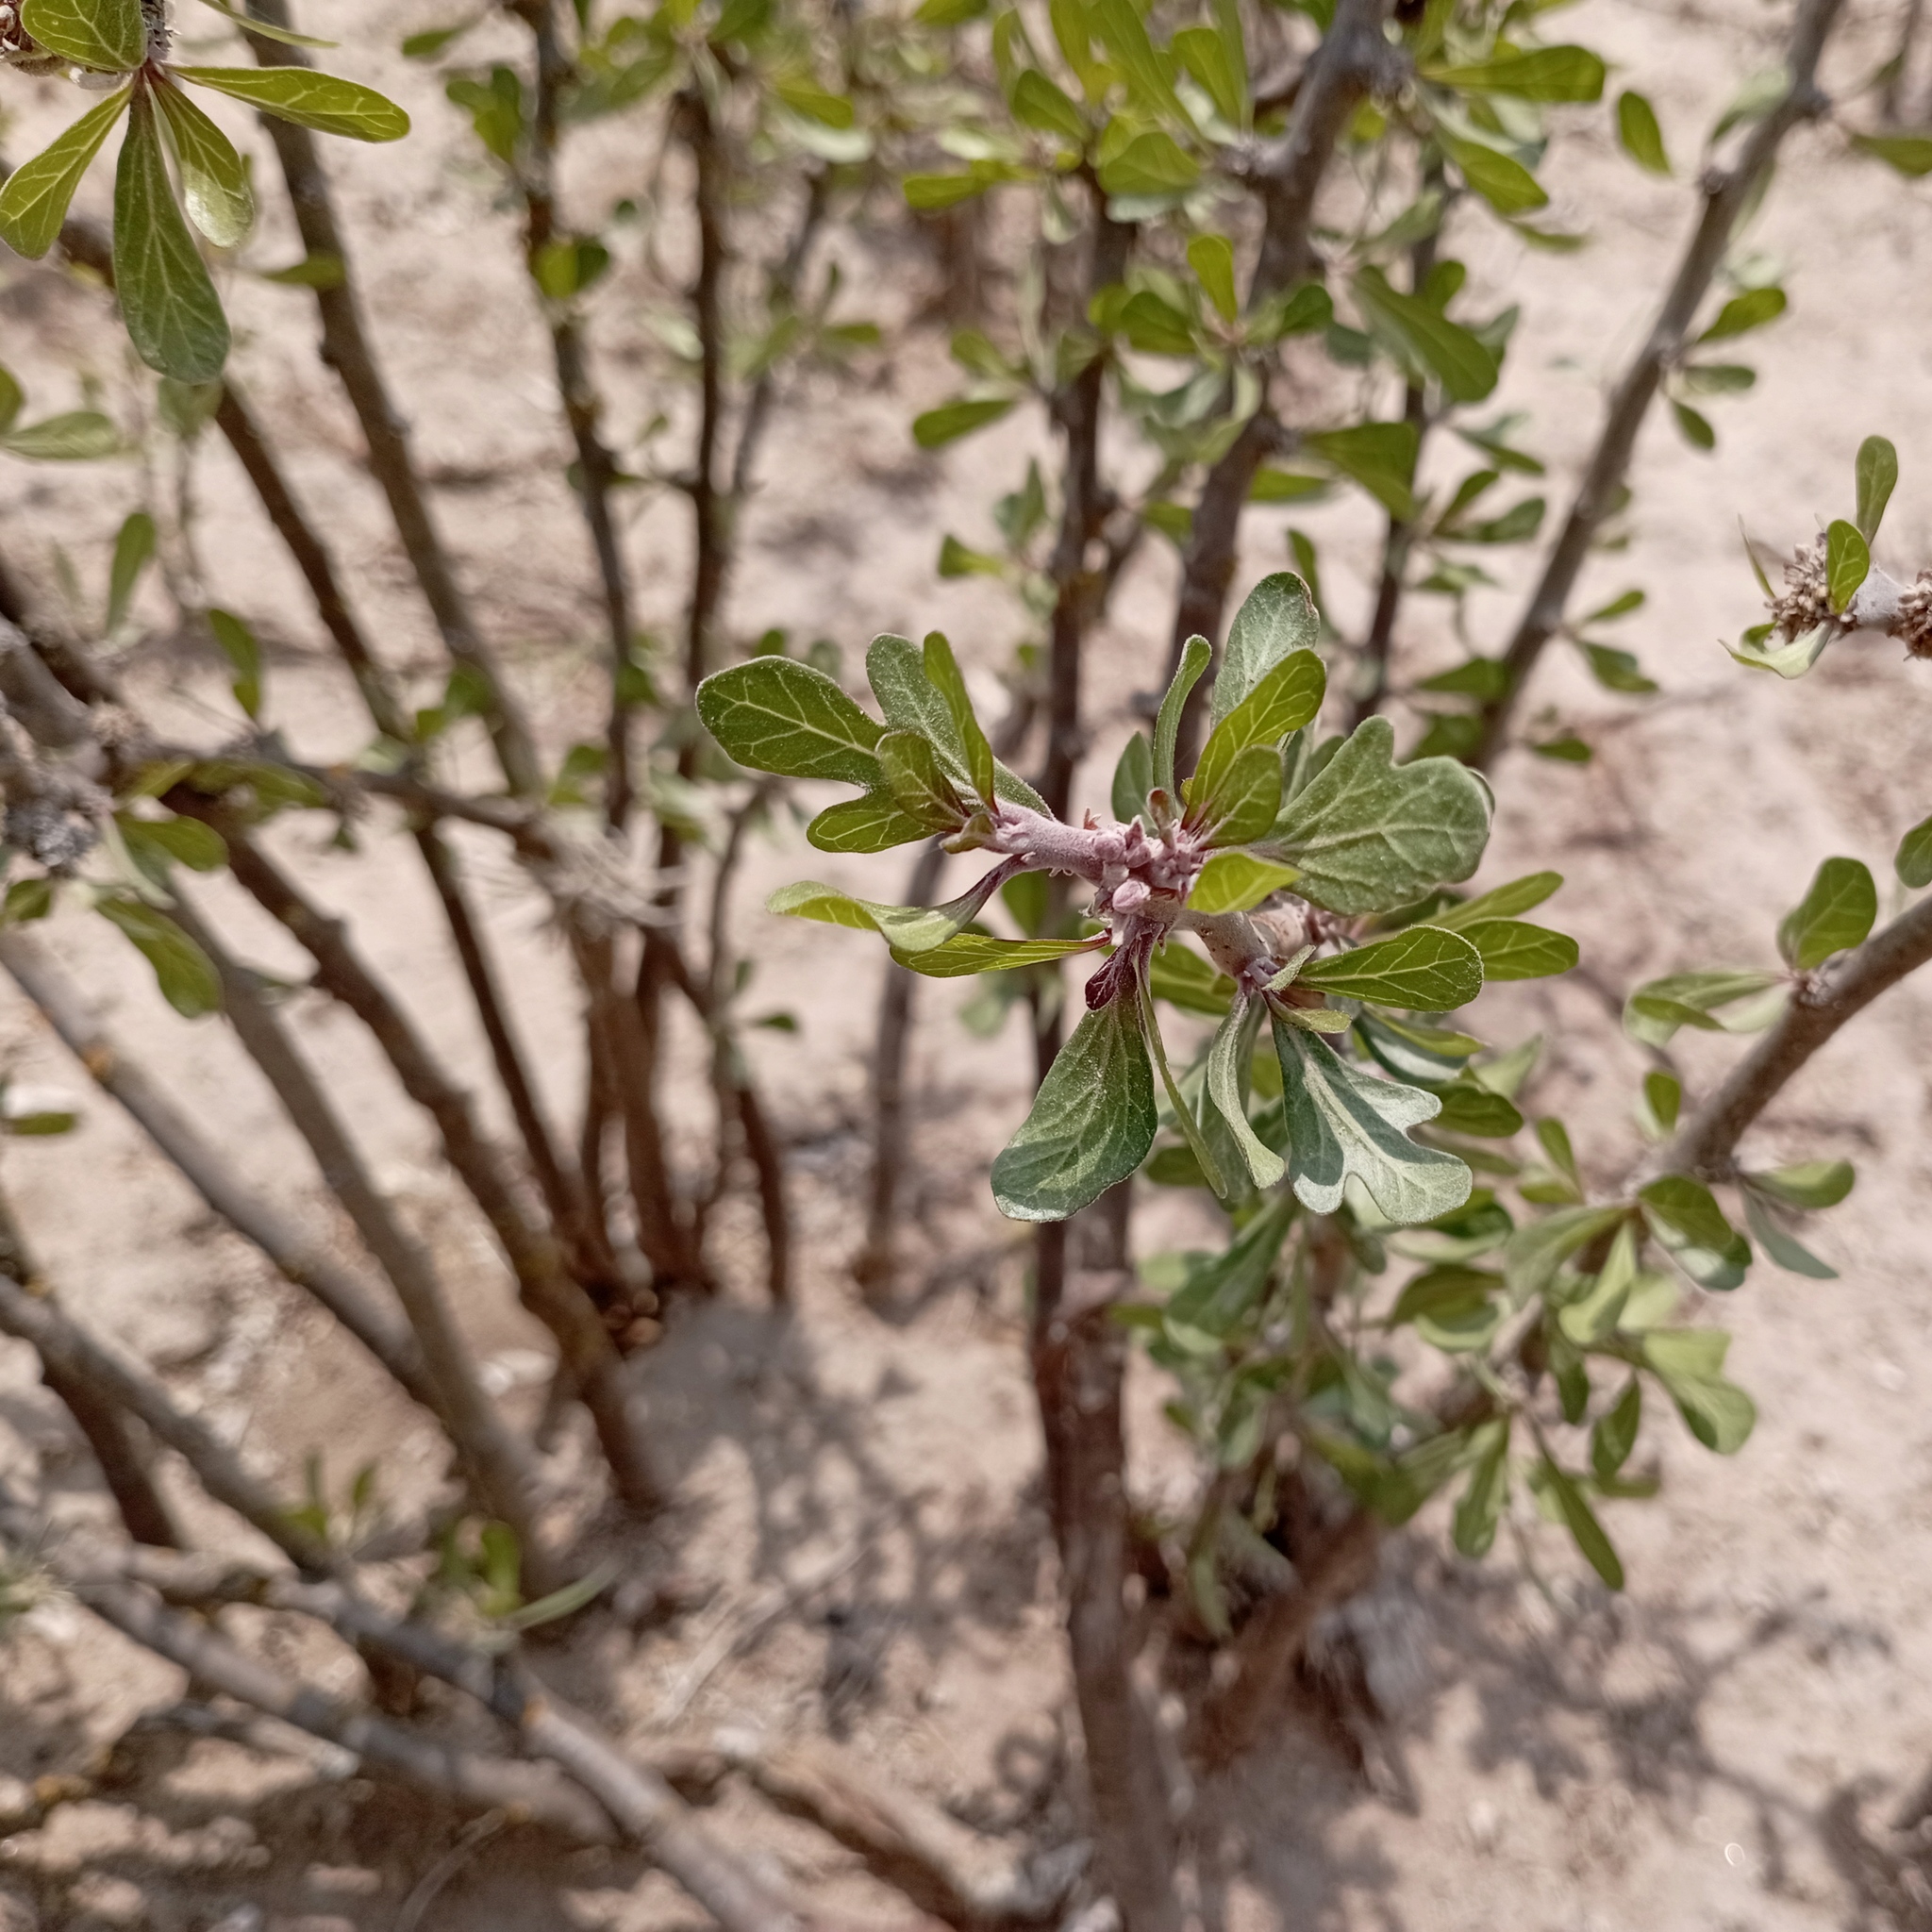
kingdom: Plantae
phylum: Tracheophyta
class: Magnoliopsida
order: Malpighiales
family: Euphorbiaceae
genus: Jatropha
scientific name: Jatropha dioica
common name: Leatherstem
